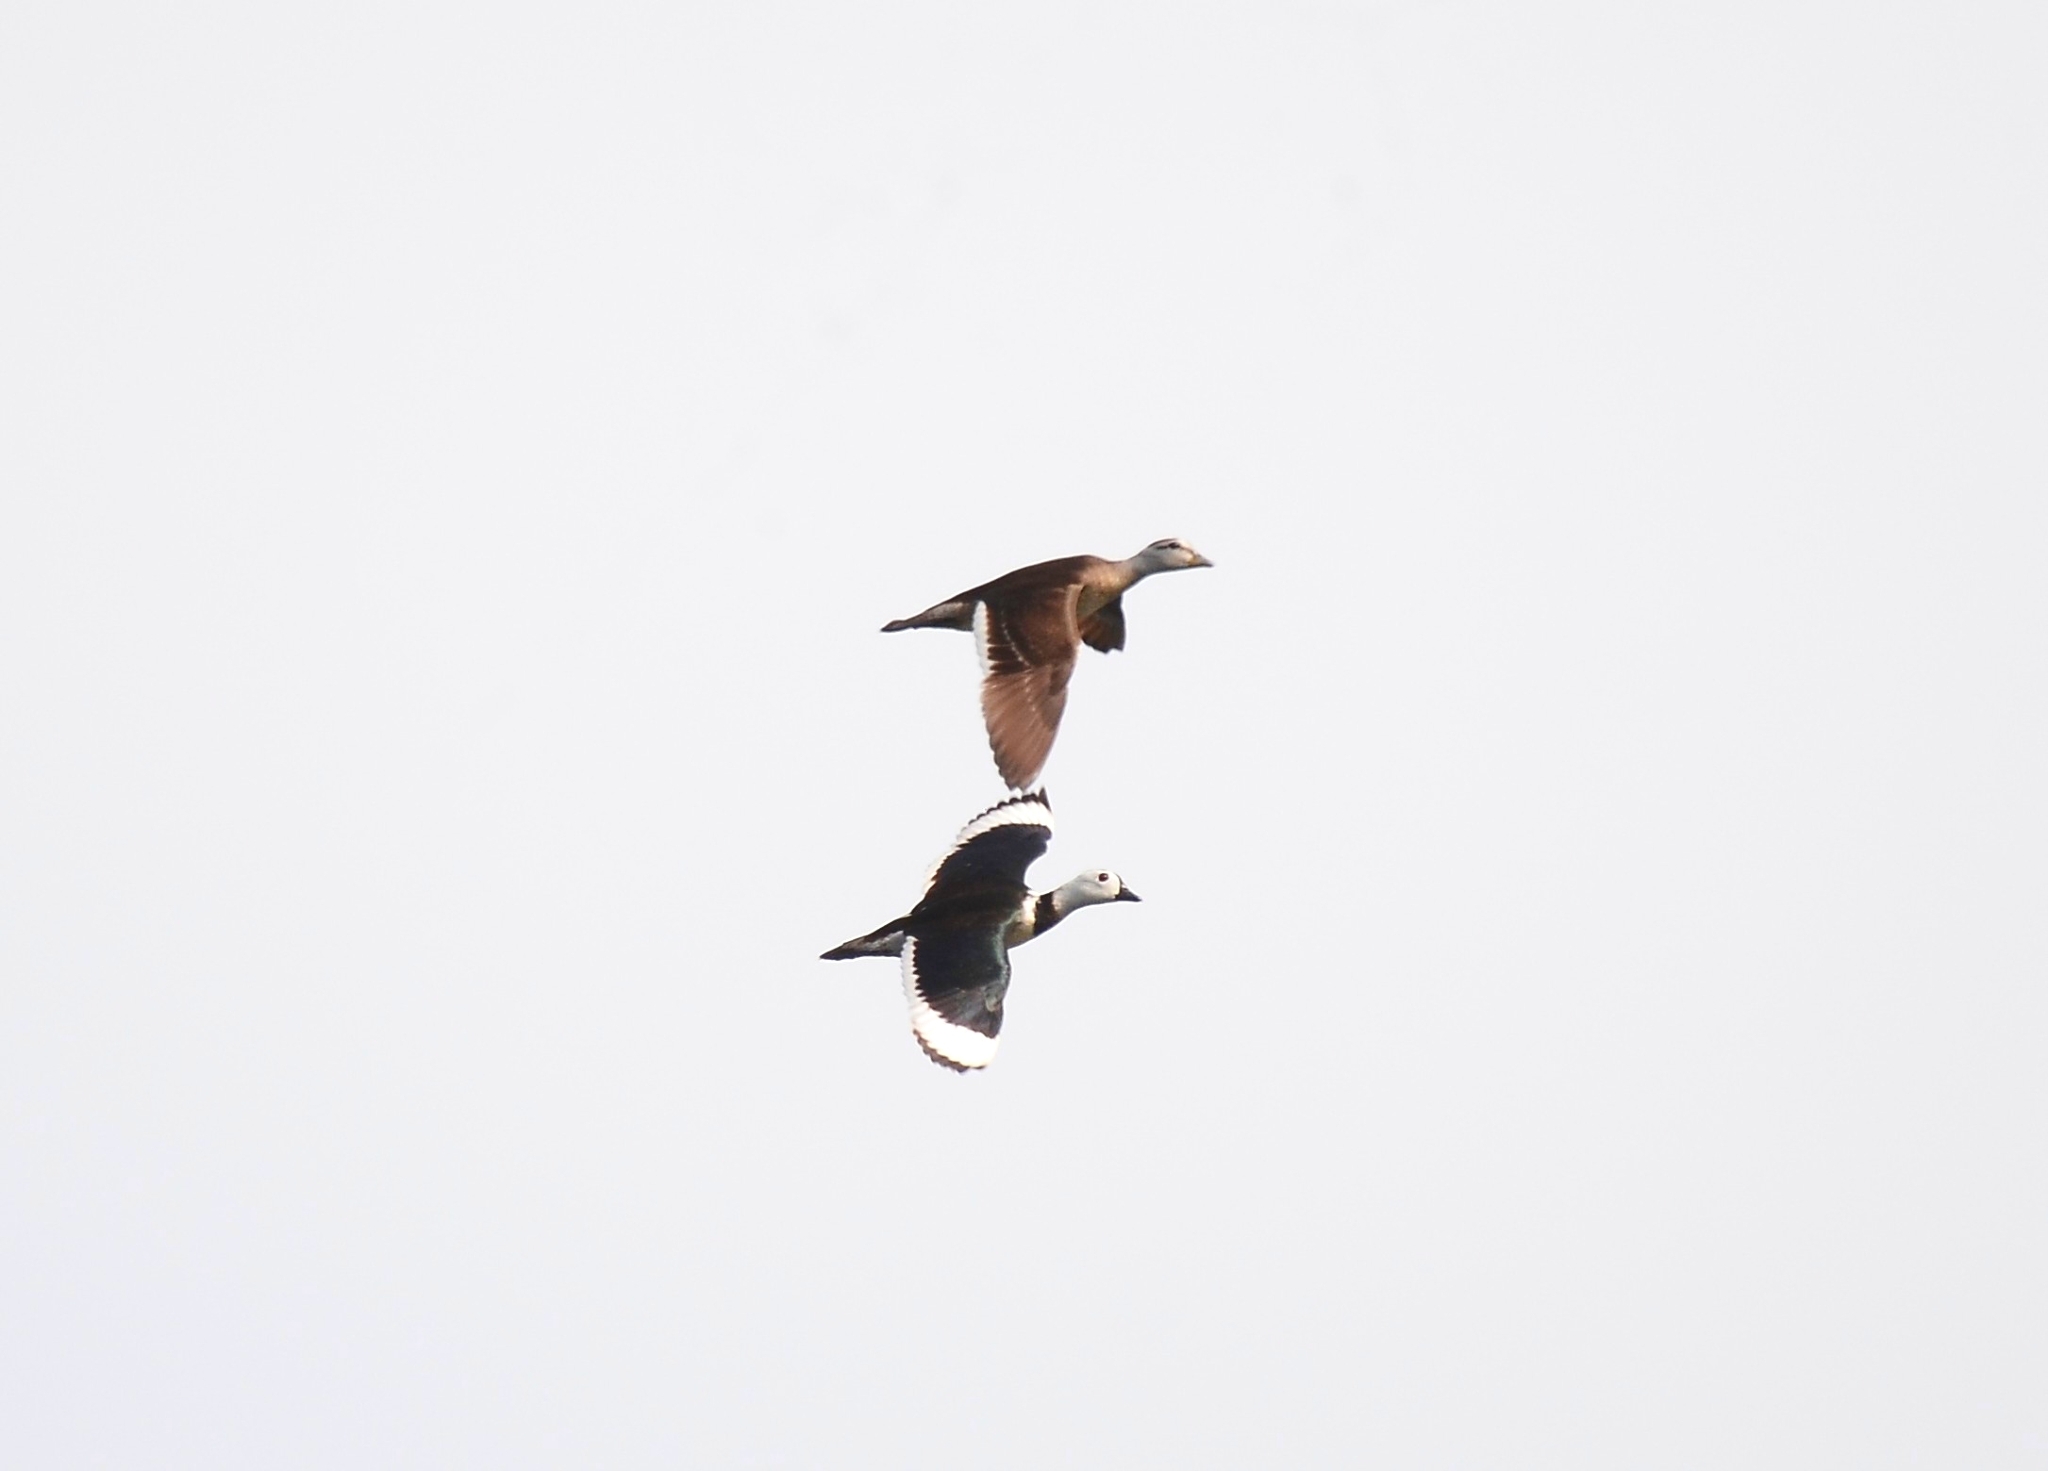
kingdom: Animalia
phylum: Chordata
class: Aves
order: Anseriformes
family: Anatidae
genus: Nettapus
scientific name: Nettapus coromandelianus
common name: Cotton pygmy-goose
